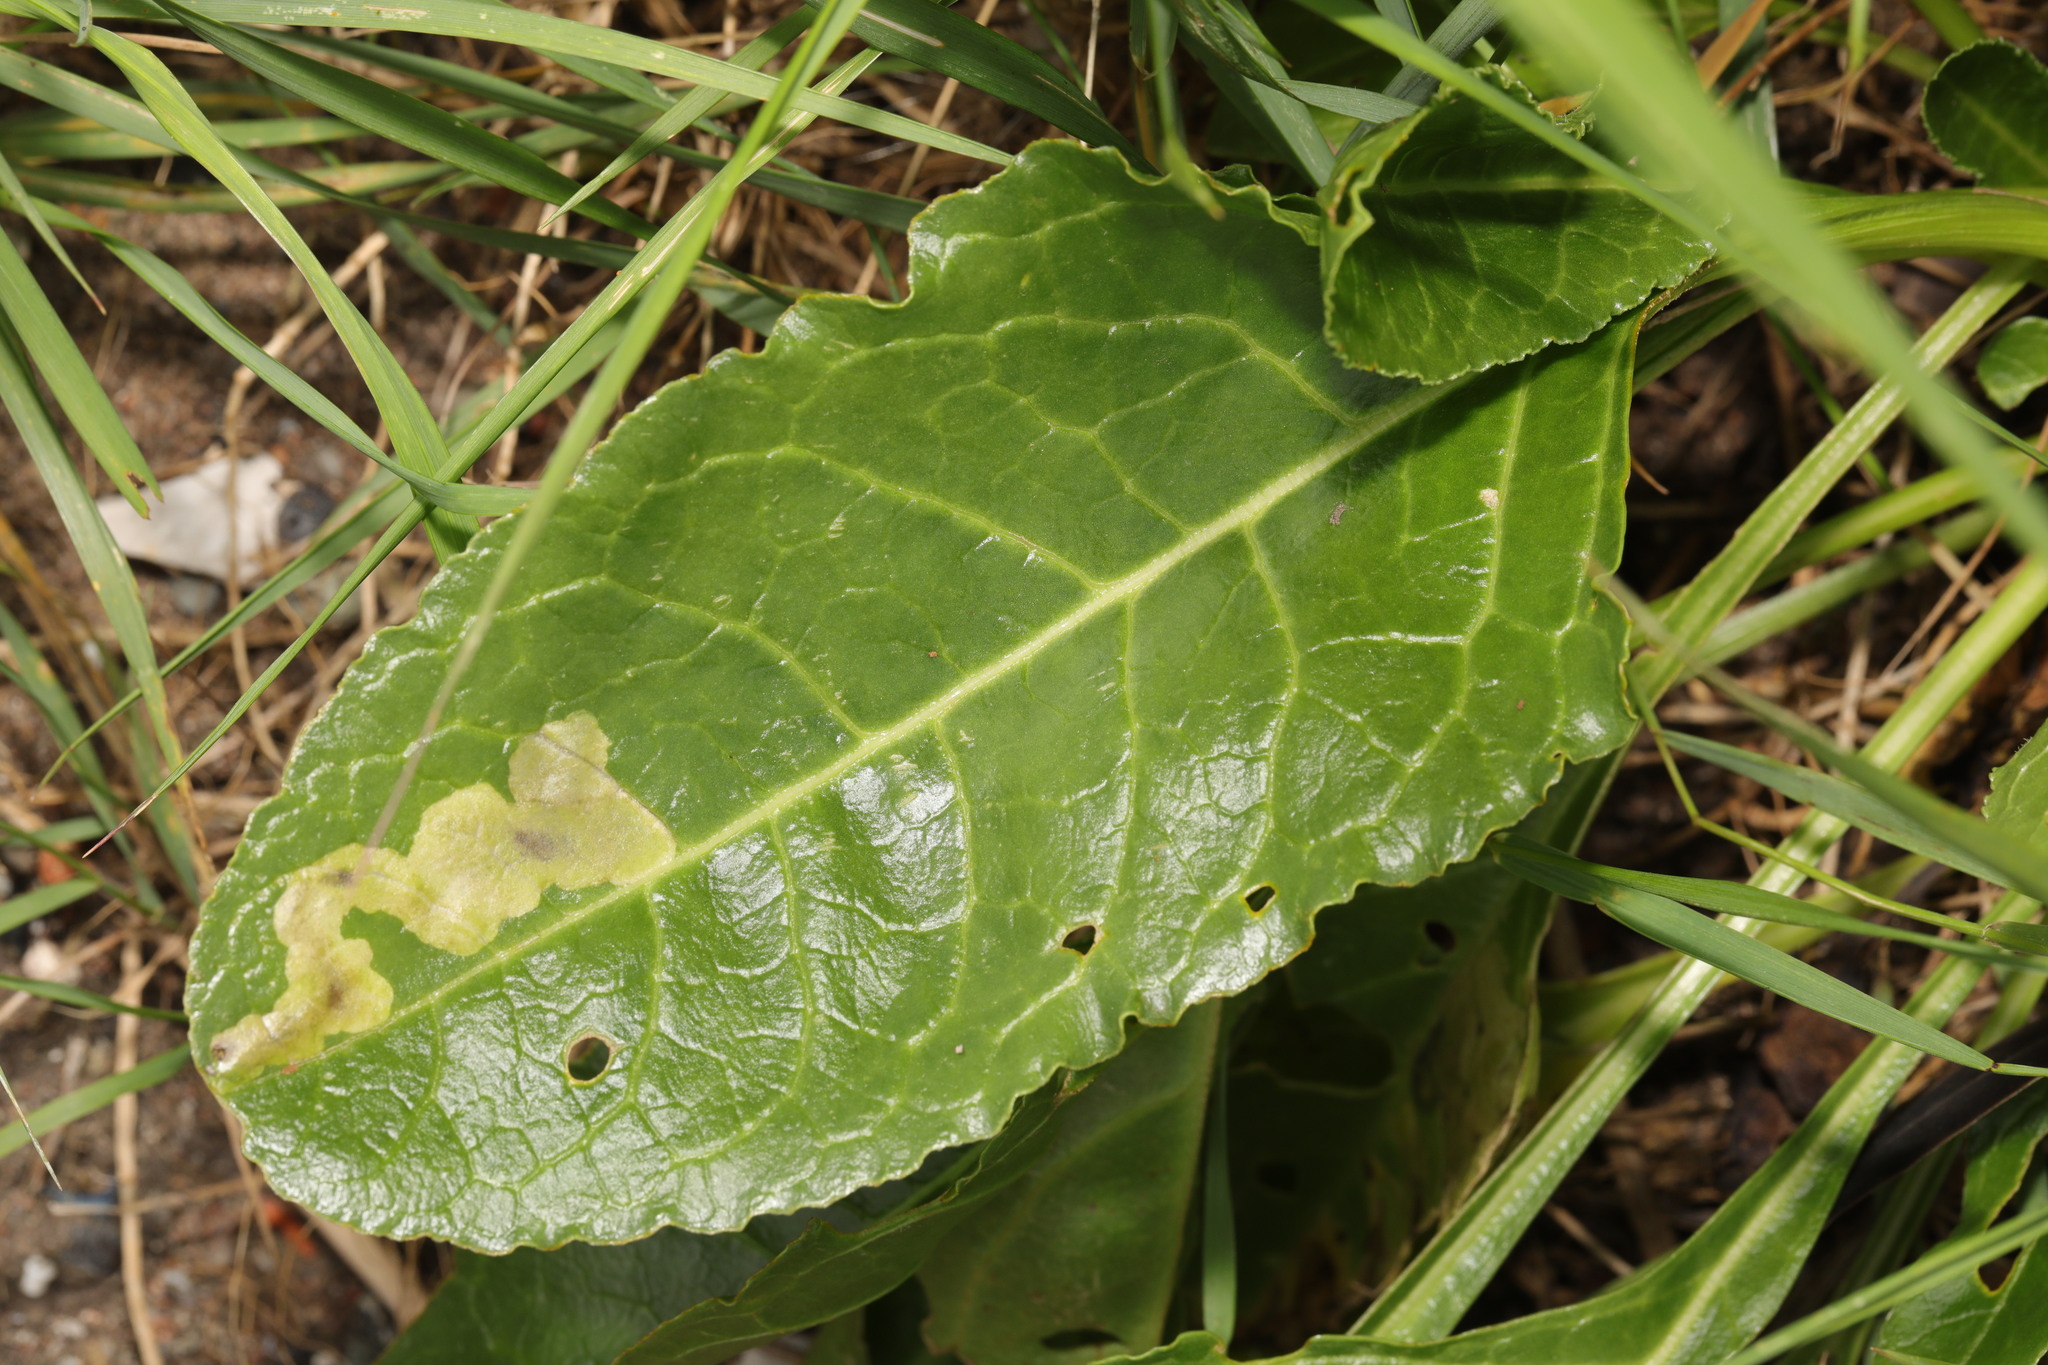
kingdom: Plantae
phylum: Tracheophyta
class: Magnoliopsida
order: Caryophyllales
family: Amaranthaceae
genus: Beta
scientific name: Beta vulgaris
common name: Beet
